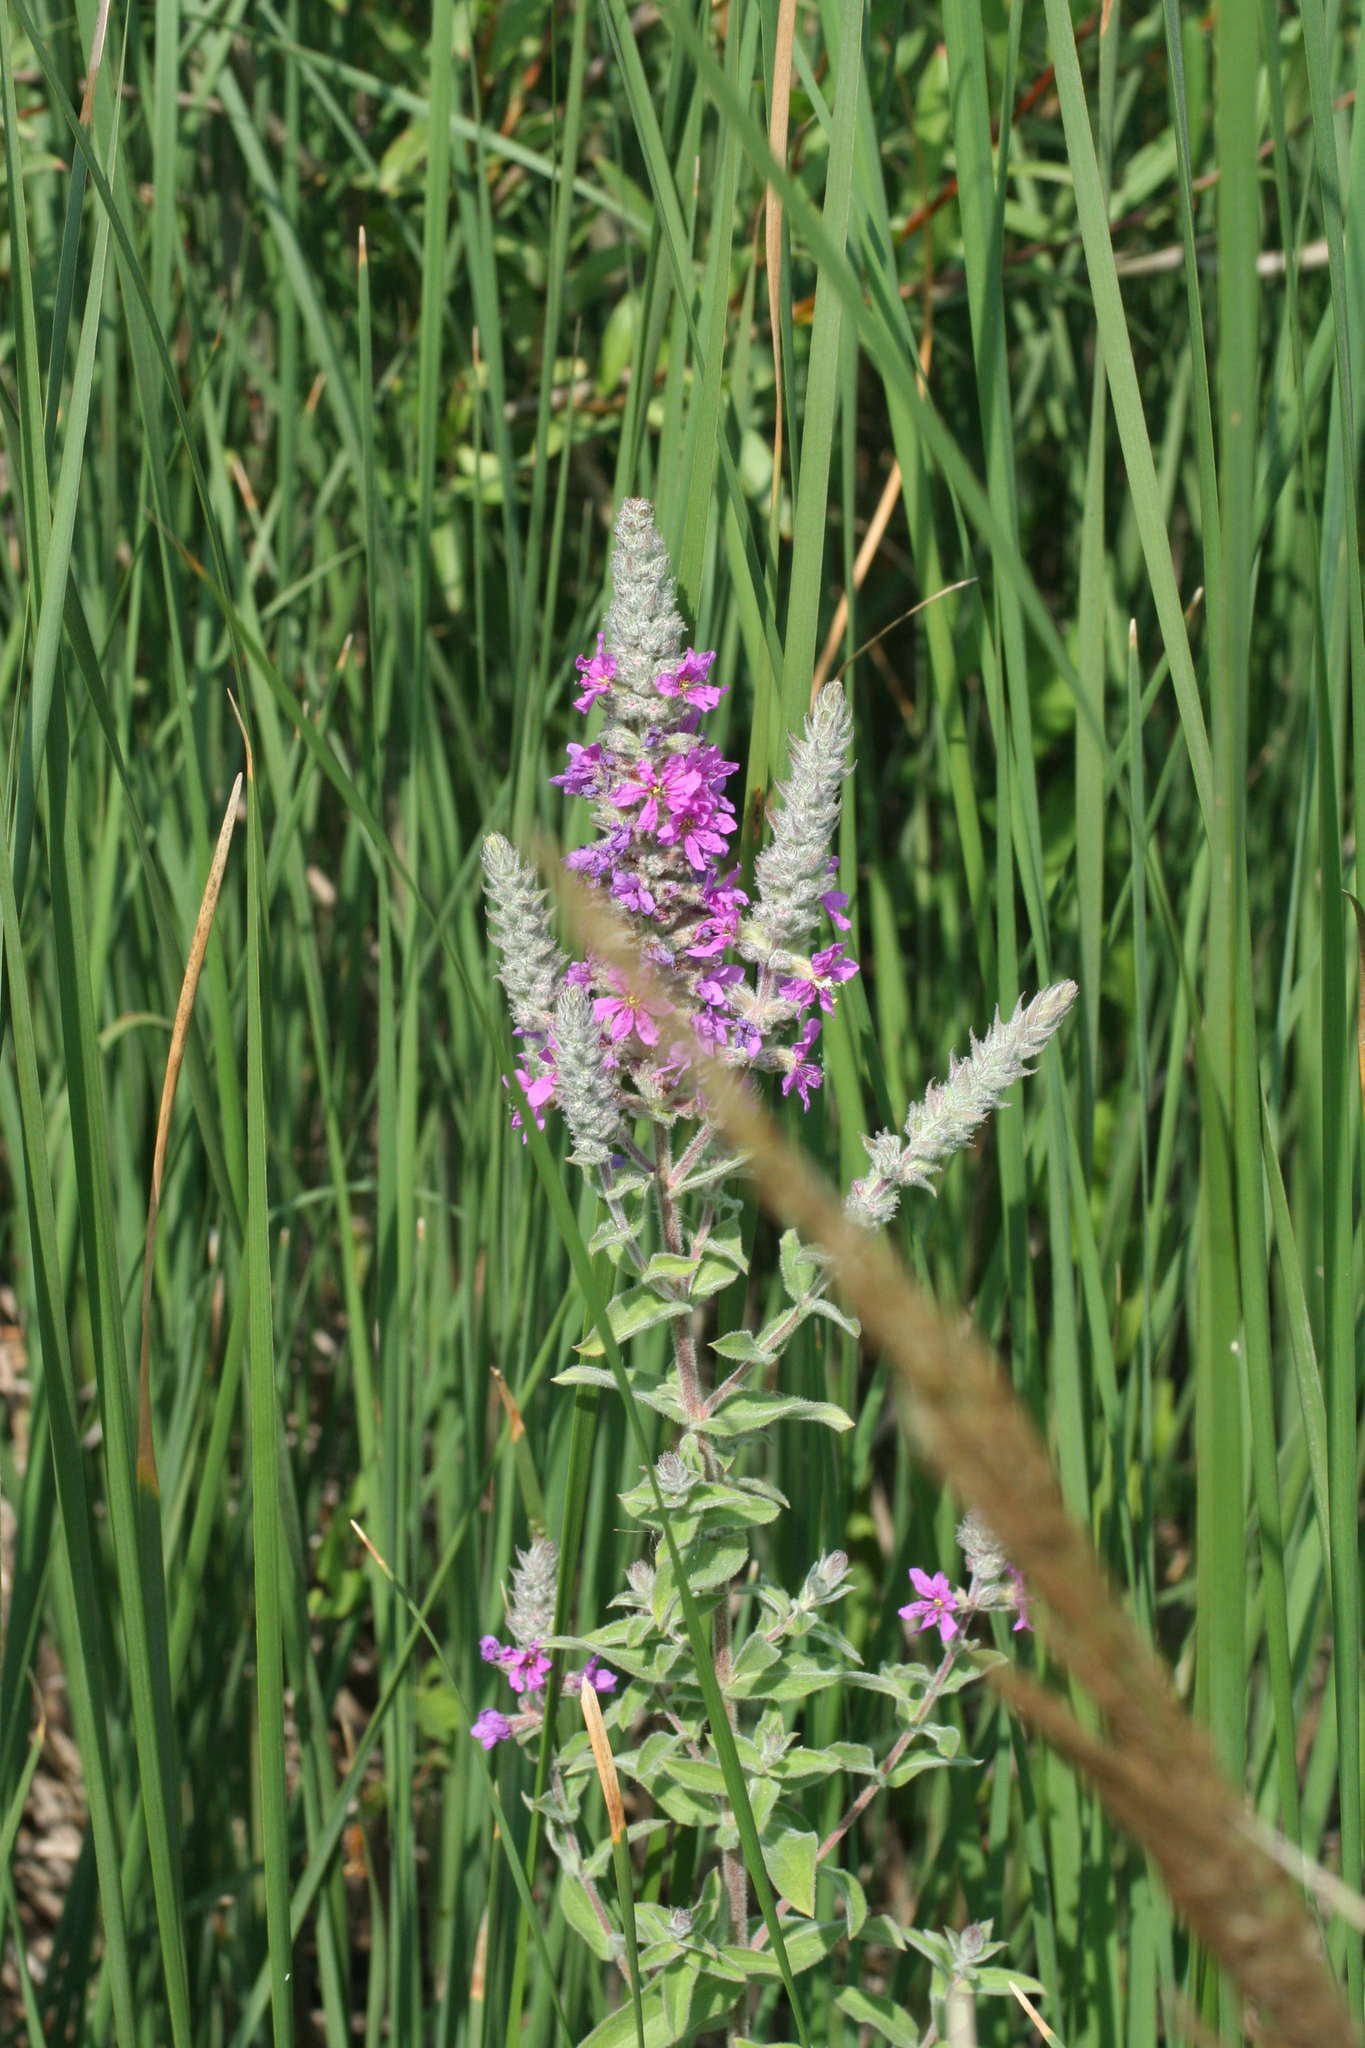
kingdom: Plantae
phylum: Tracheophyta
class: Magnoliopsida
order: Myrtales
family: Lythraceae
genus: Lythrum
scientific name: Lythrum salicaria
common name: Purple loosestrife
